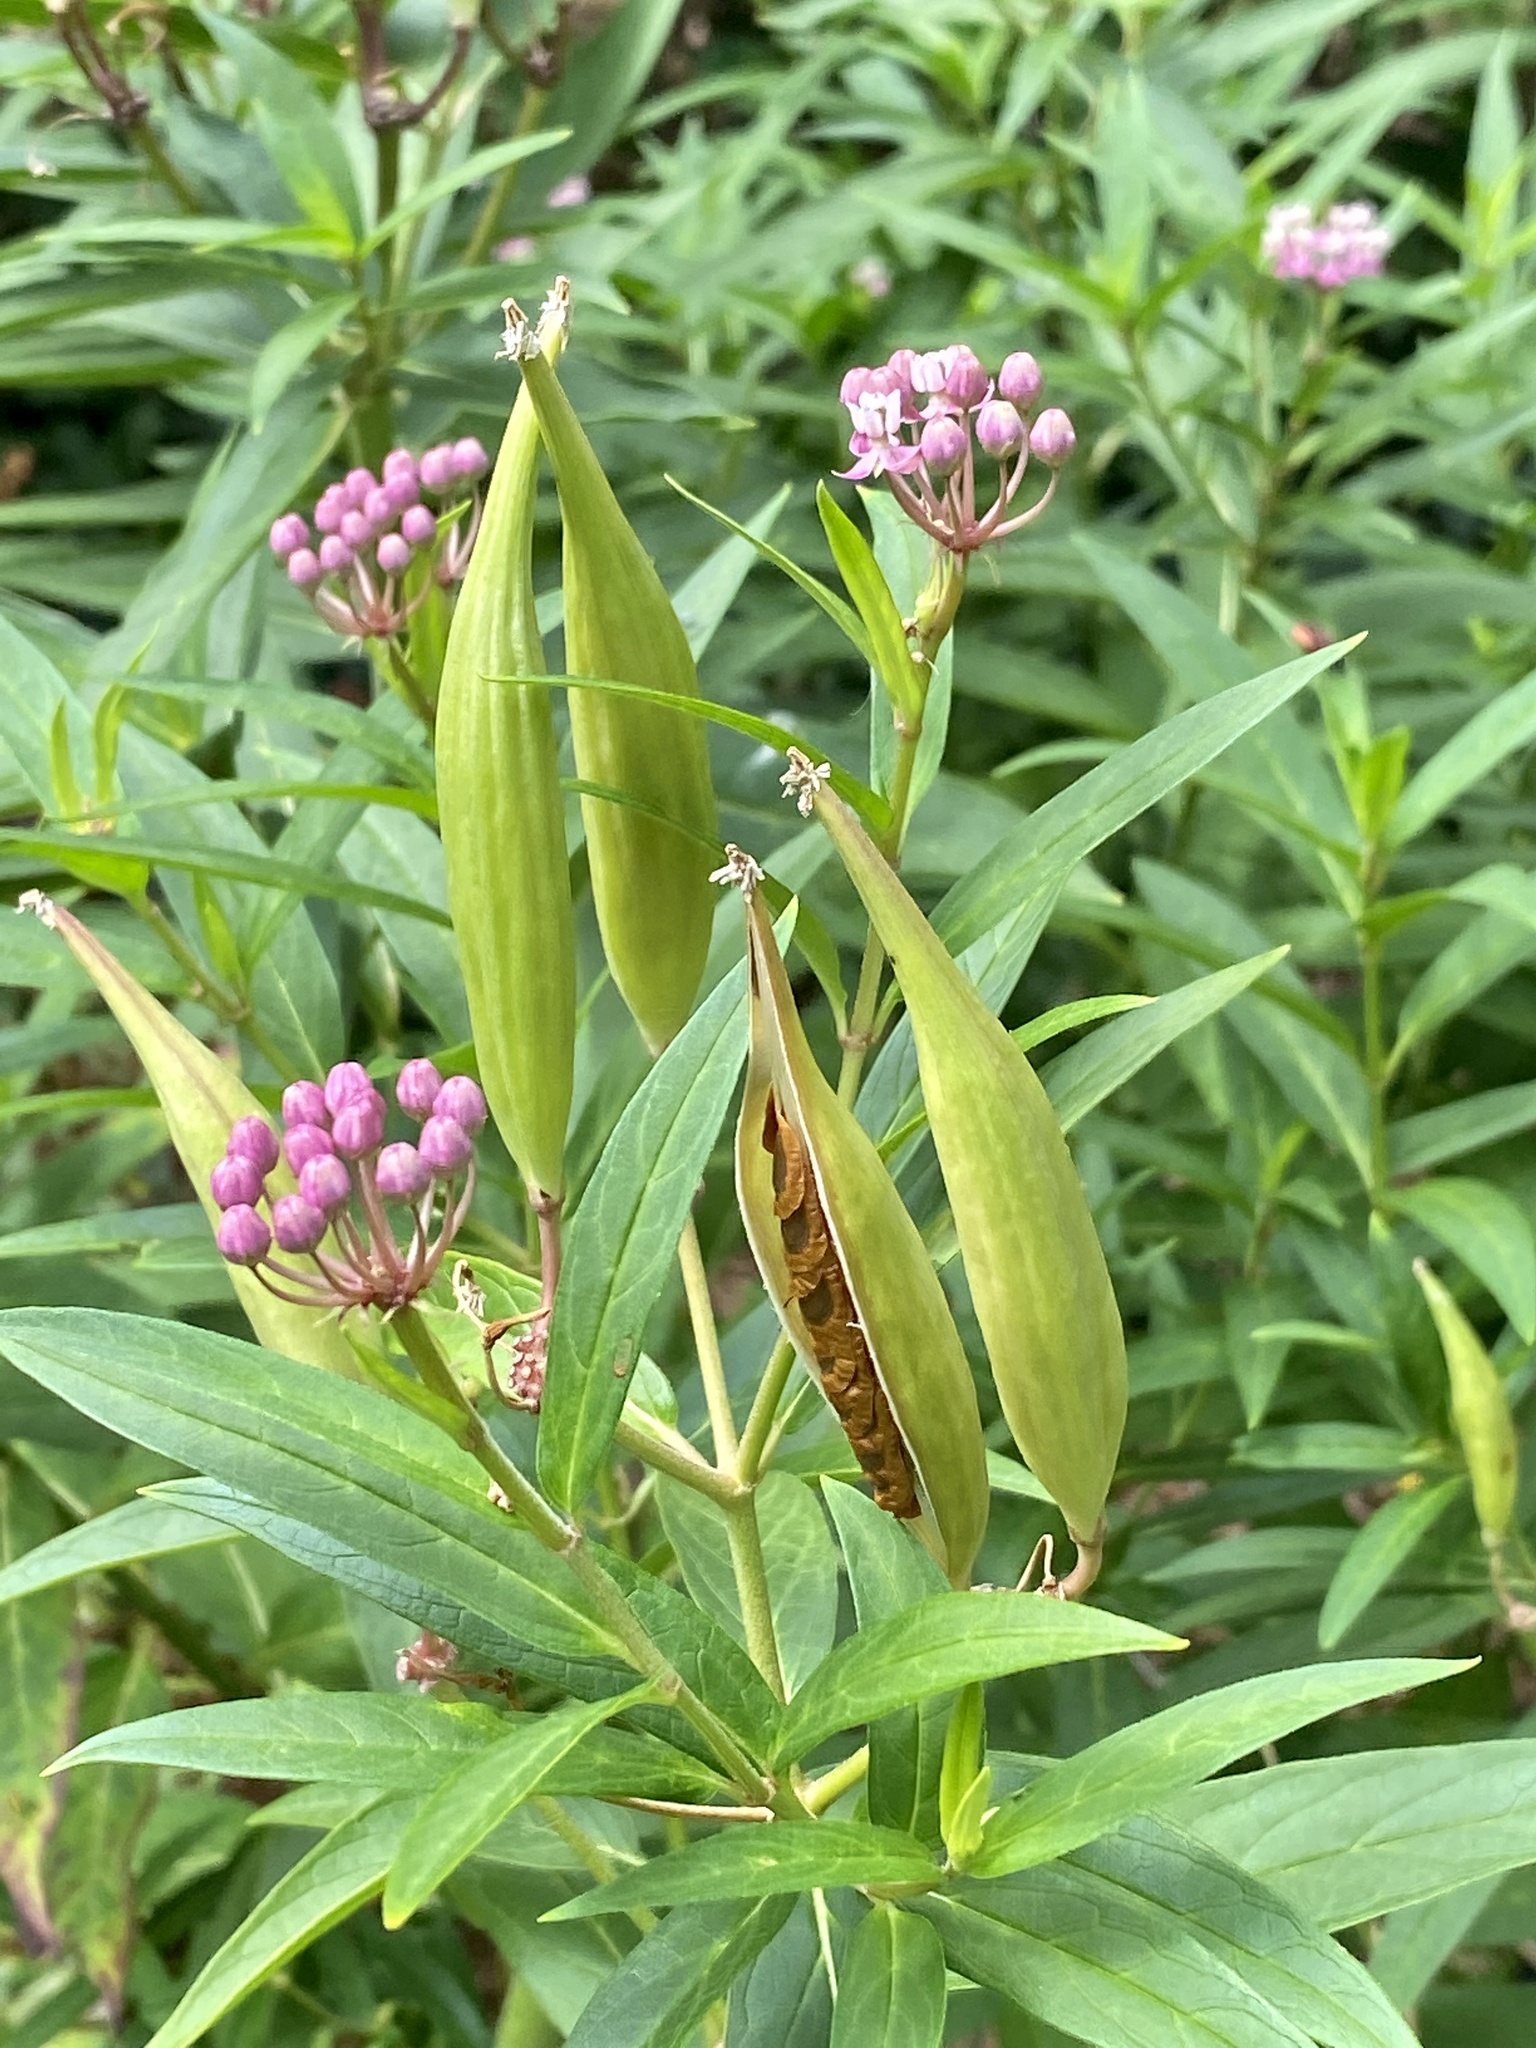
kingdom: Plantae
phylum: Tracheophyta
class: Magnoliopsida
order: Gentianales
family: Apocynaceae
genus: Asclepias
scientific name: Asclepias incarnata
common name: Swamp milkweed
